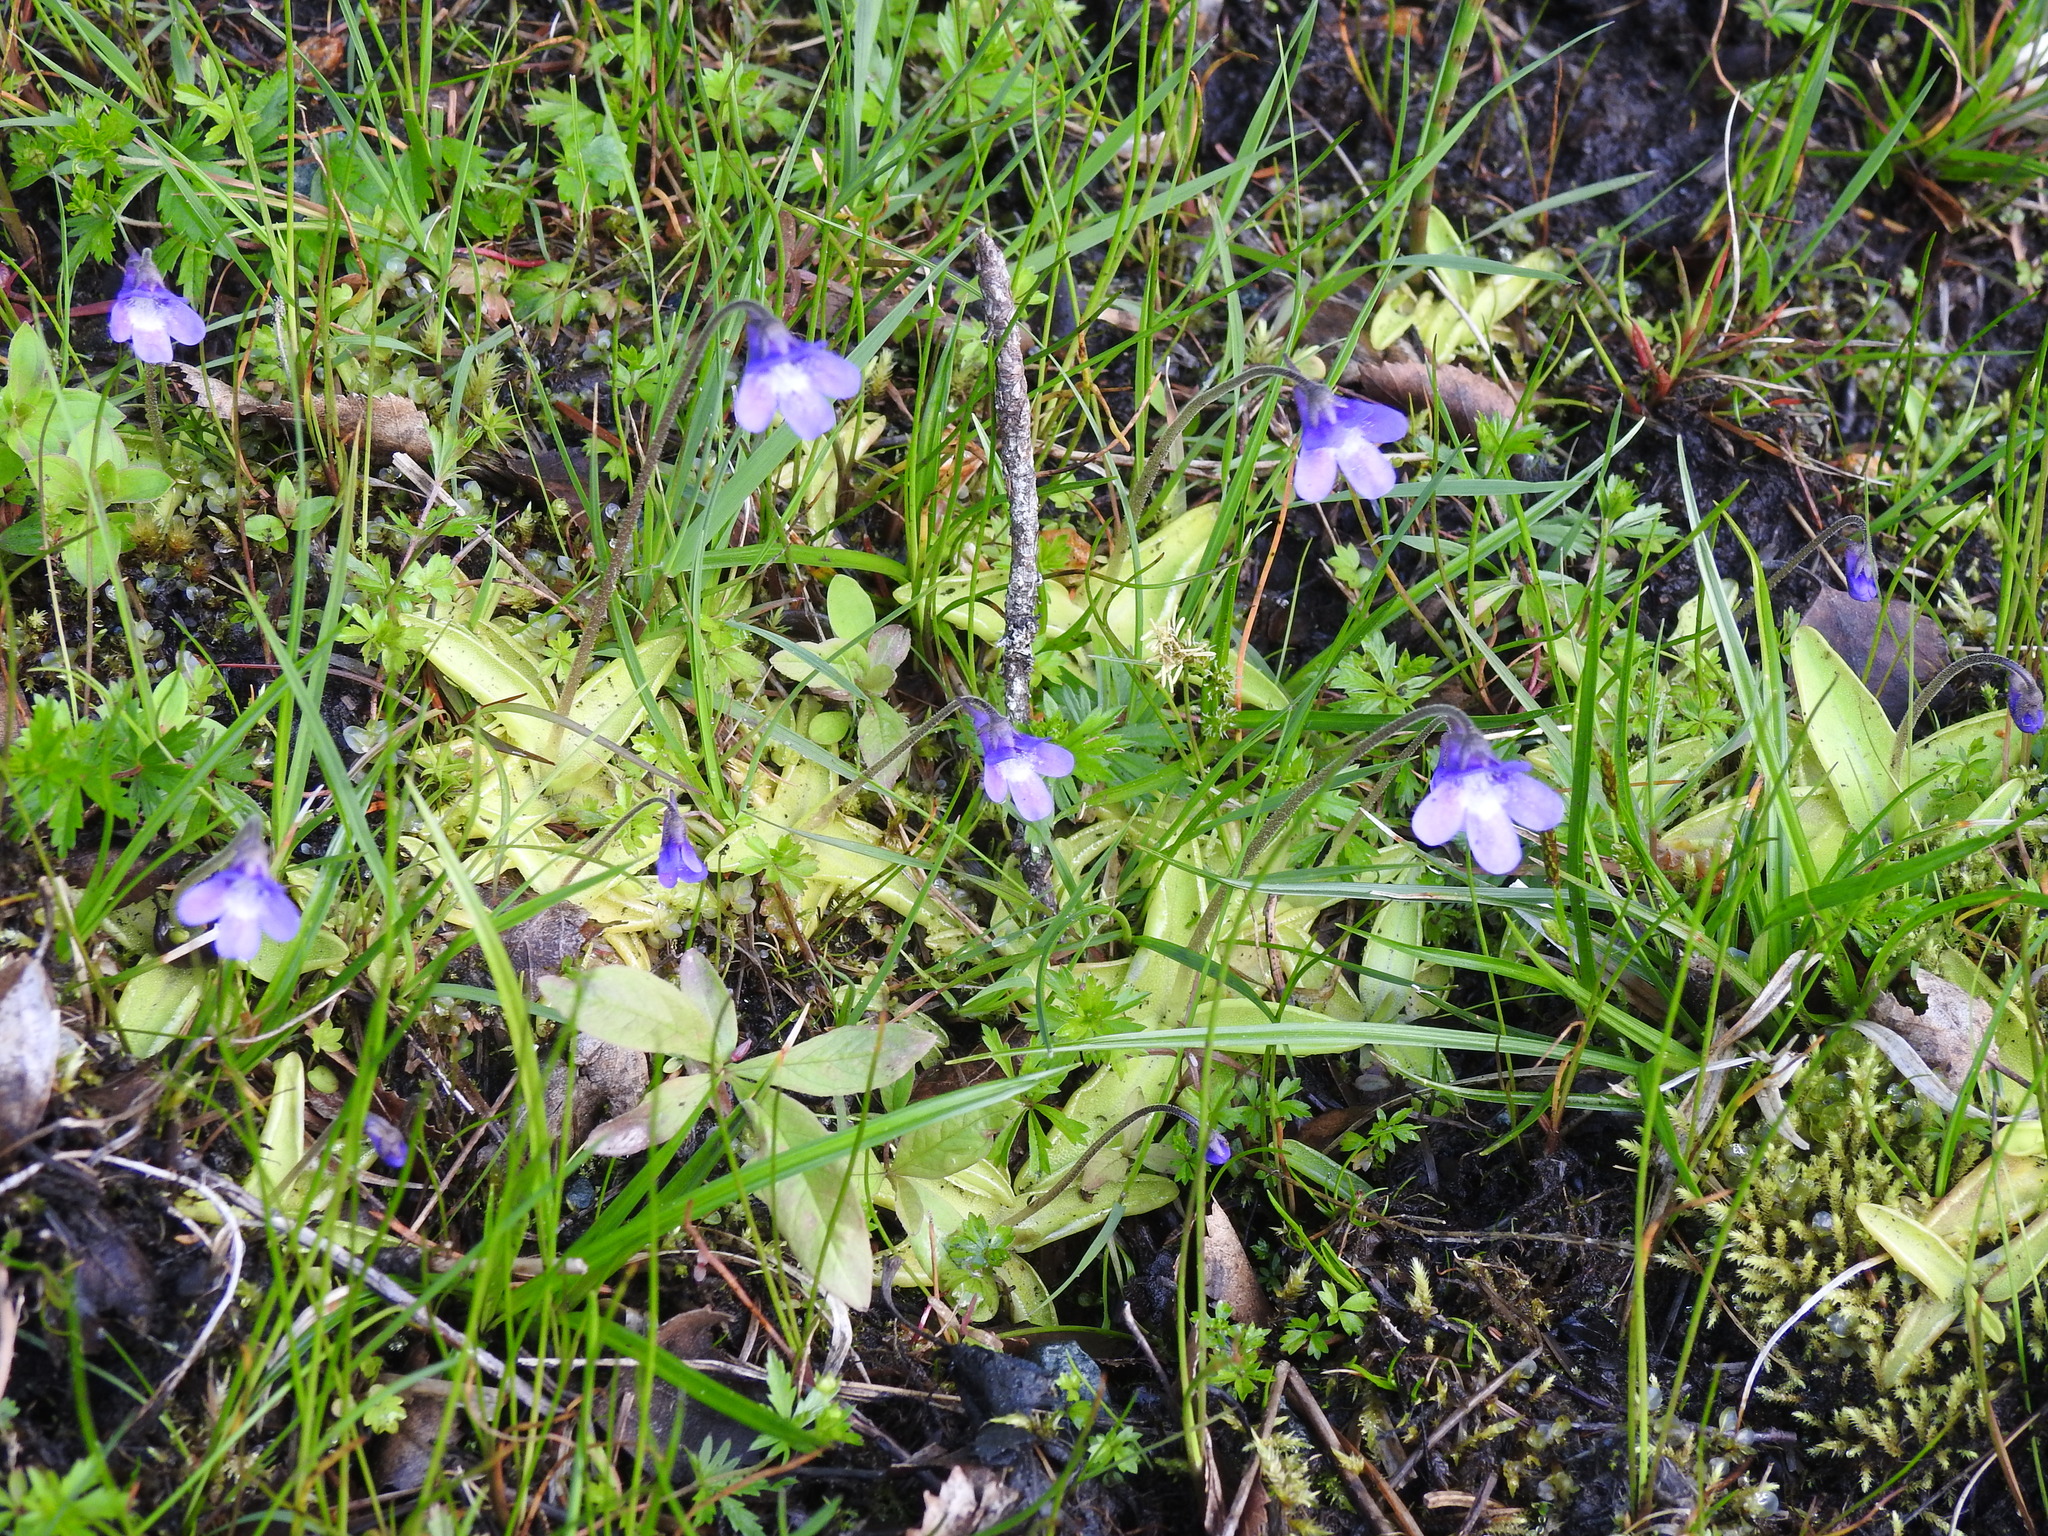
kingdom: Plantae
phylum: Tracheophyta
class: Magnoliopsida
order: Lamiales
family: Lentibulariaceae
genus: Pinguicula
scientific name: Pinguicula vulgaris
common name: Common butterwort
